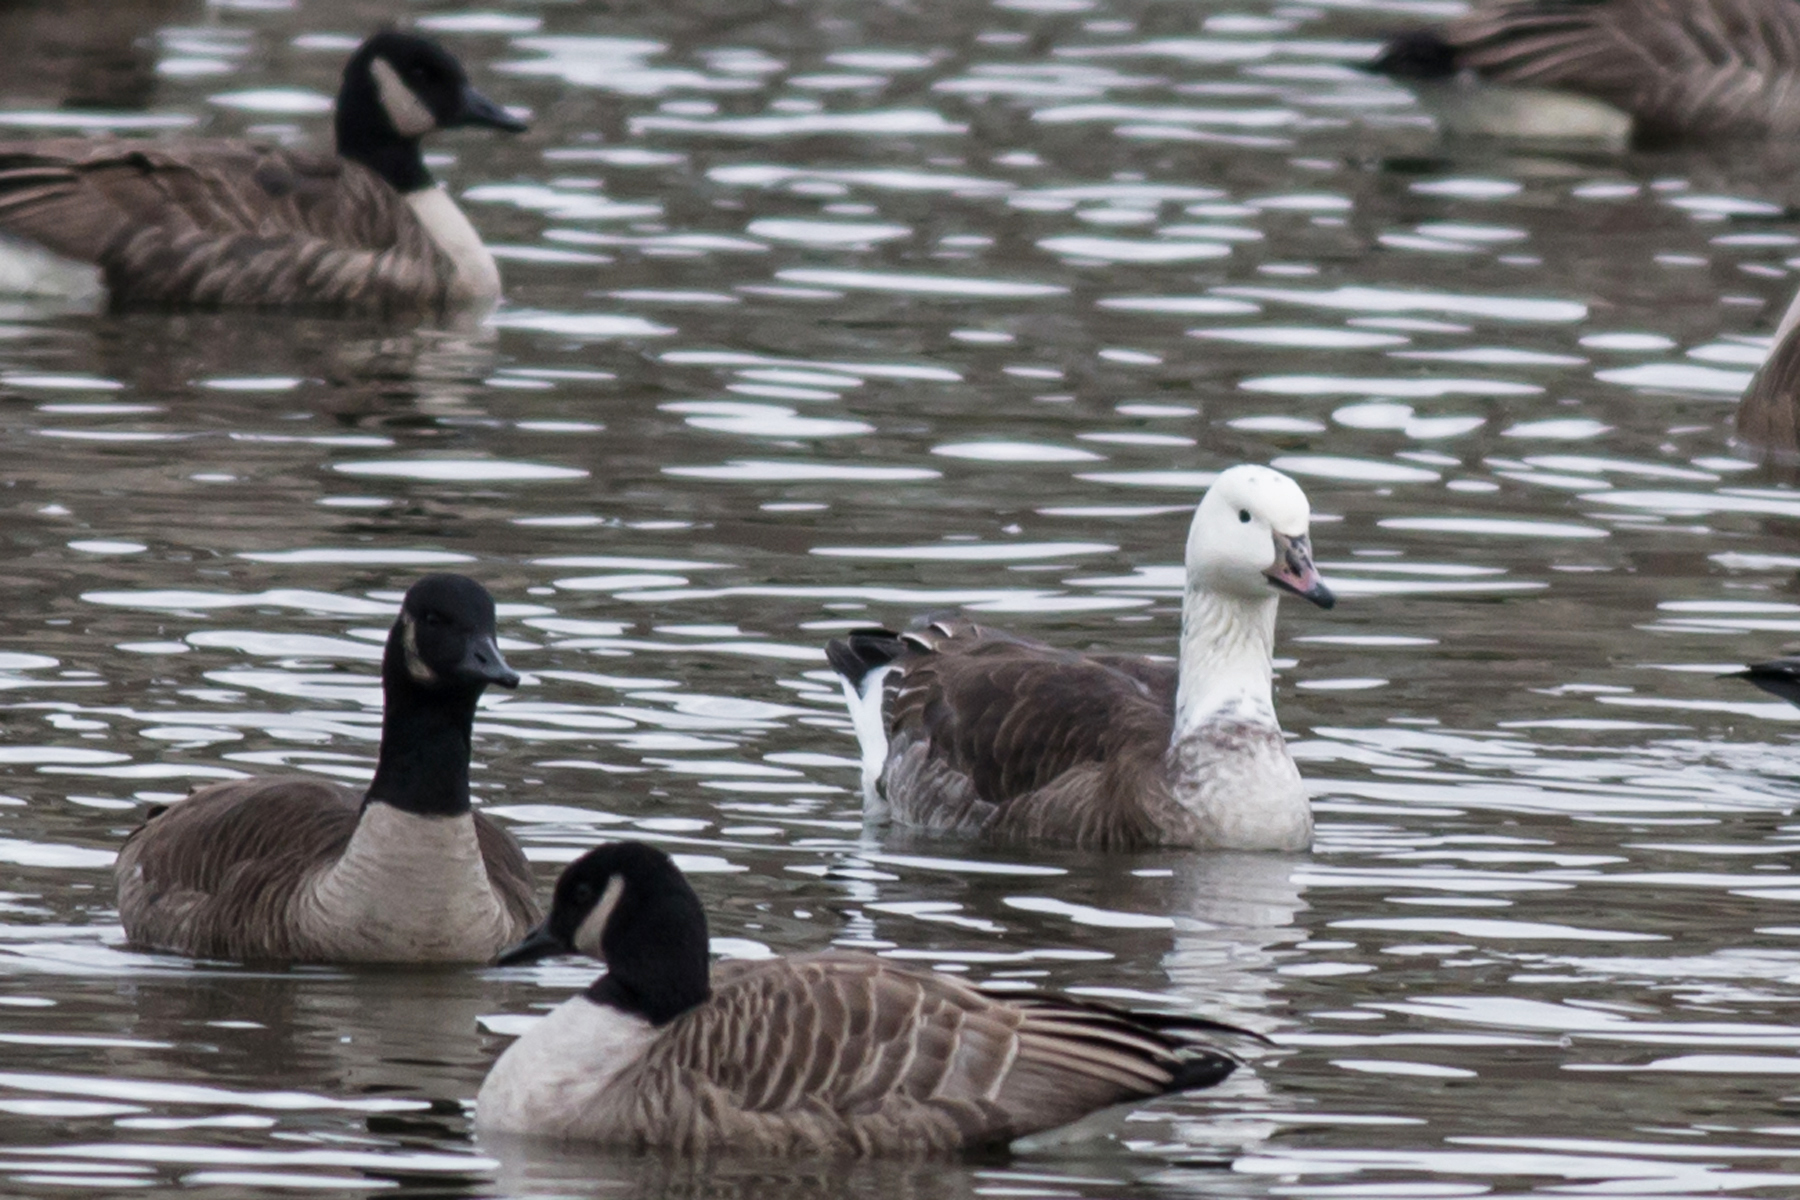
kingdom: Animalia
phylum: Chordata
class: Aves
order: Anseriformes
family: Anatidae
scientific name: Anatidae
